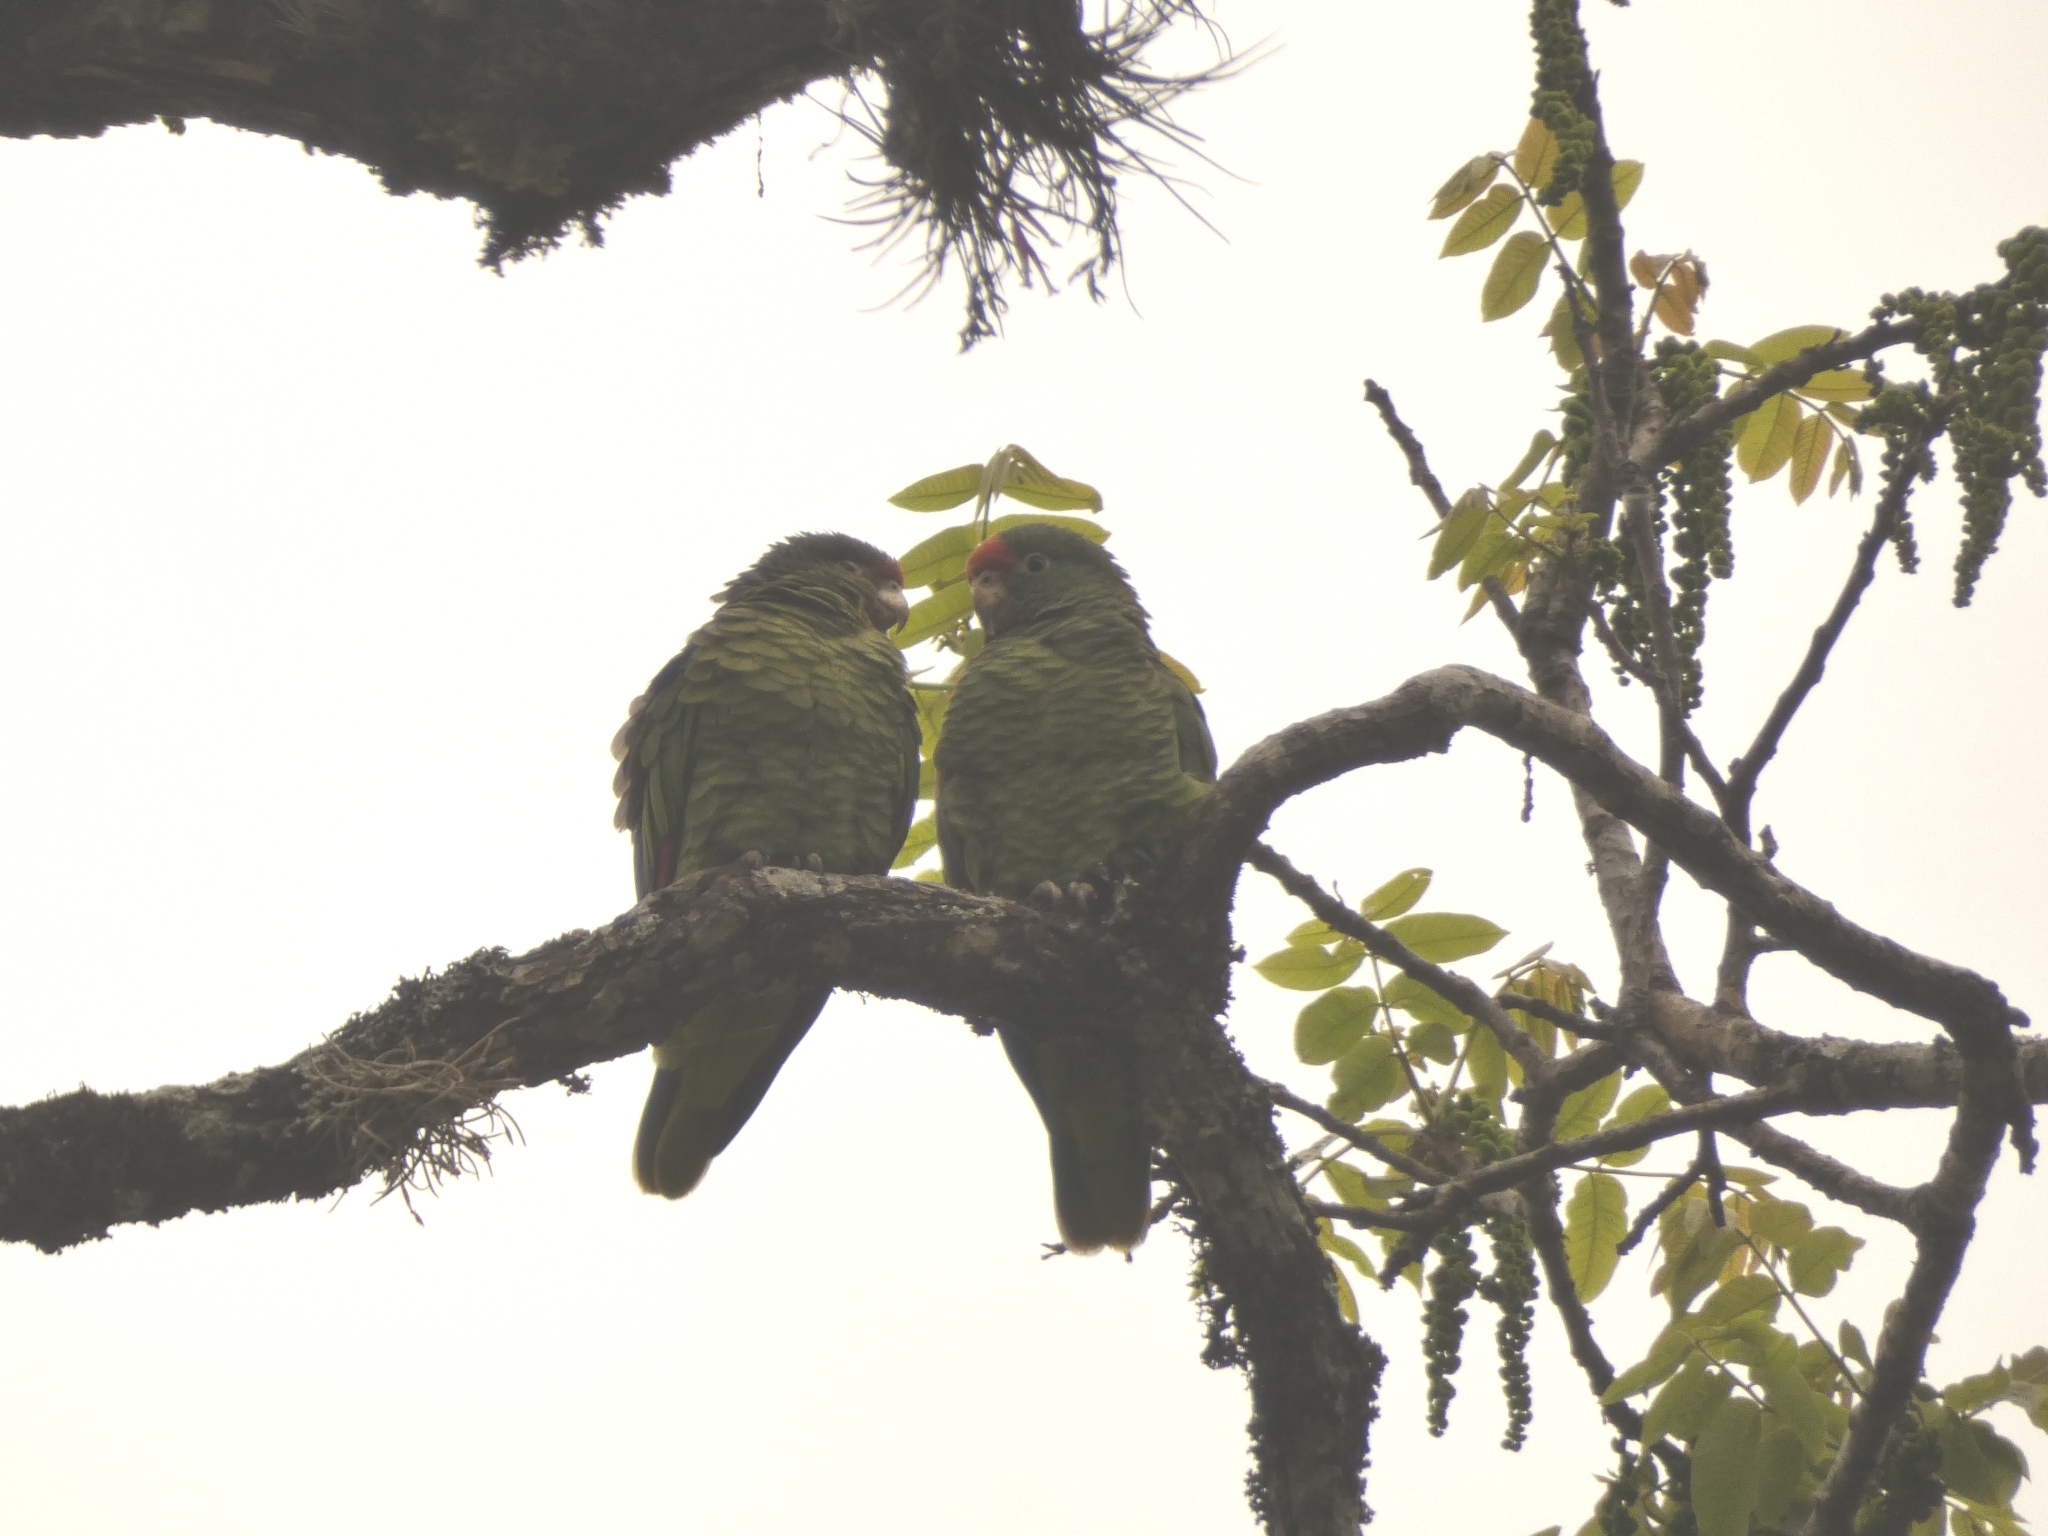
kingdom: Animalia
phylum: Chordata
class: Aves
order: Psittaciformes
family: Psittacidae
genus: Amazona
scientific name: Amazona tucumana
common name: Tucuman amazon
